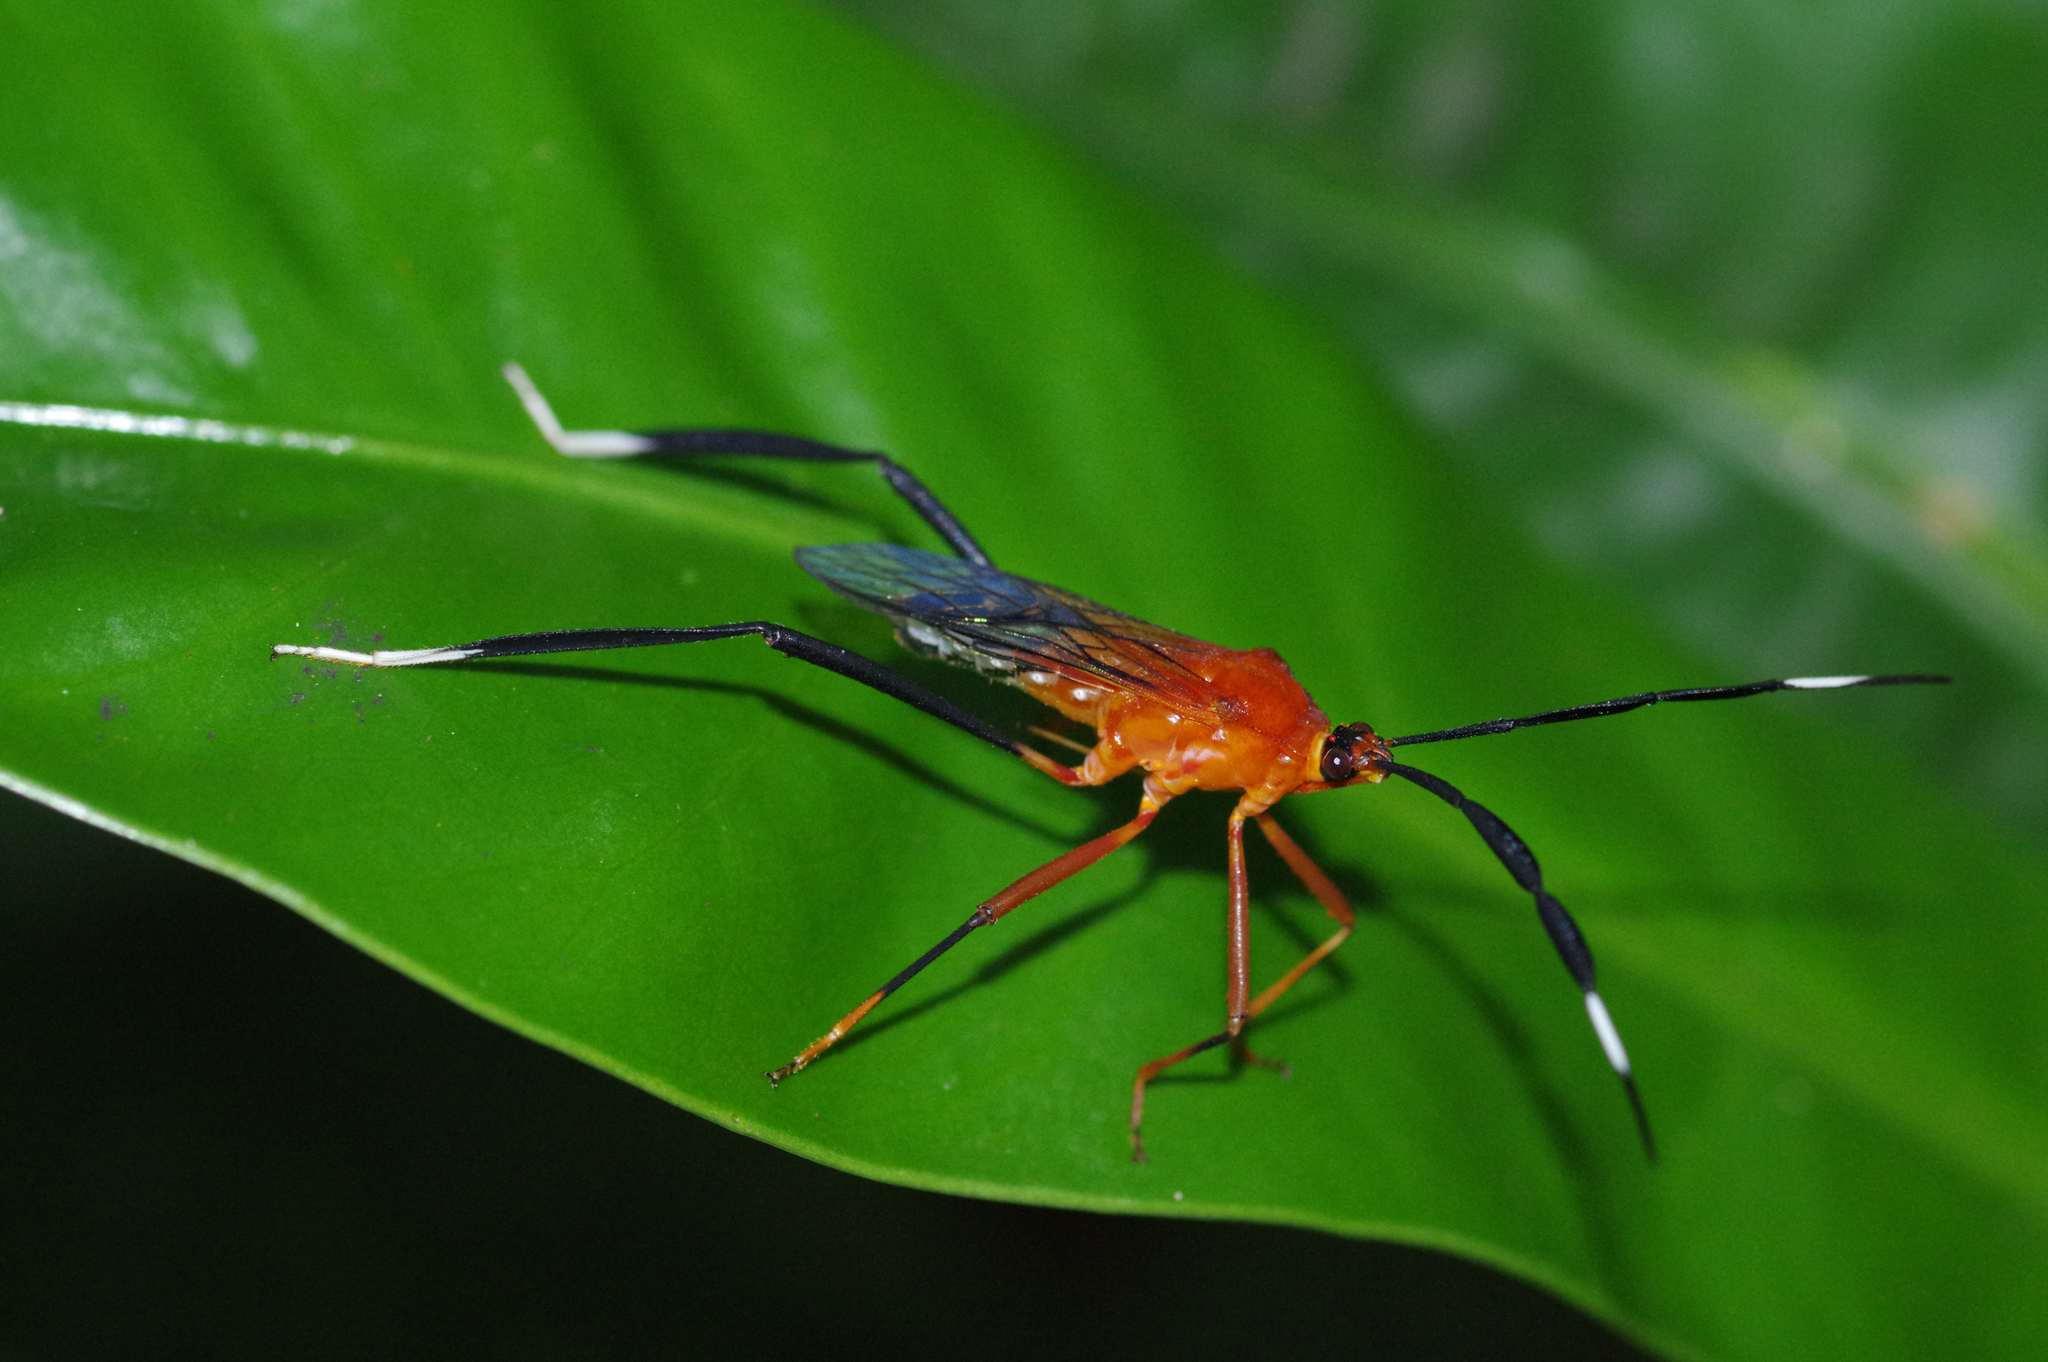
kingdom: Animalia
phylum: Arthropoda
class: Insecta
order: Hemiptera
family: Coreidae
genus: Holhymenia
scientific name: Holhymenia rubescens
